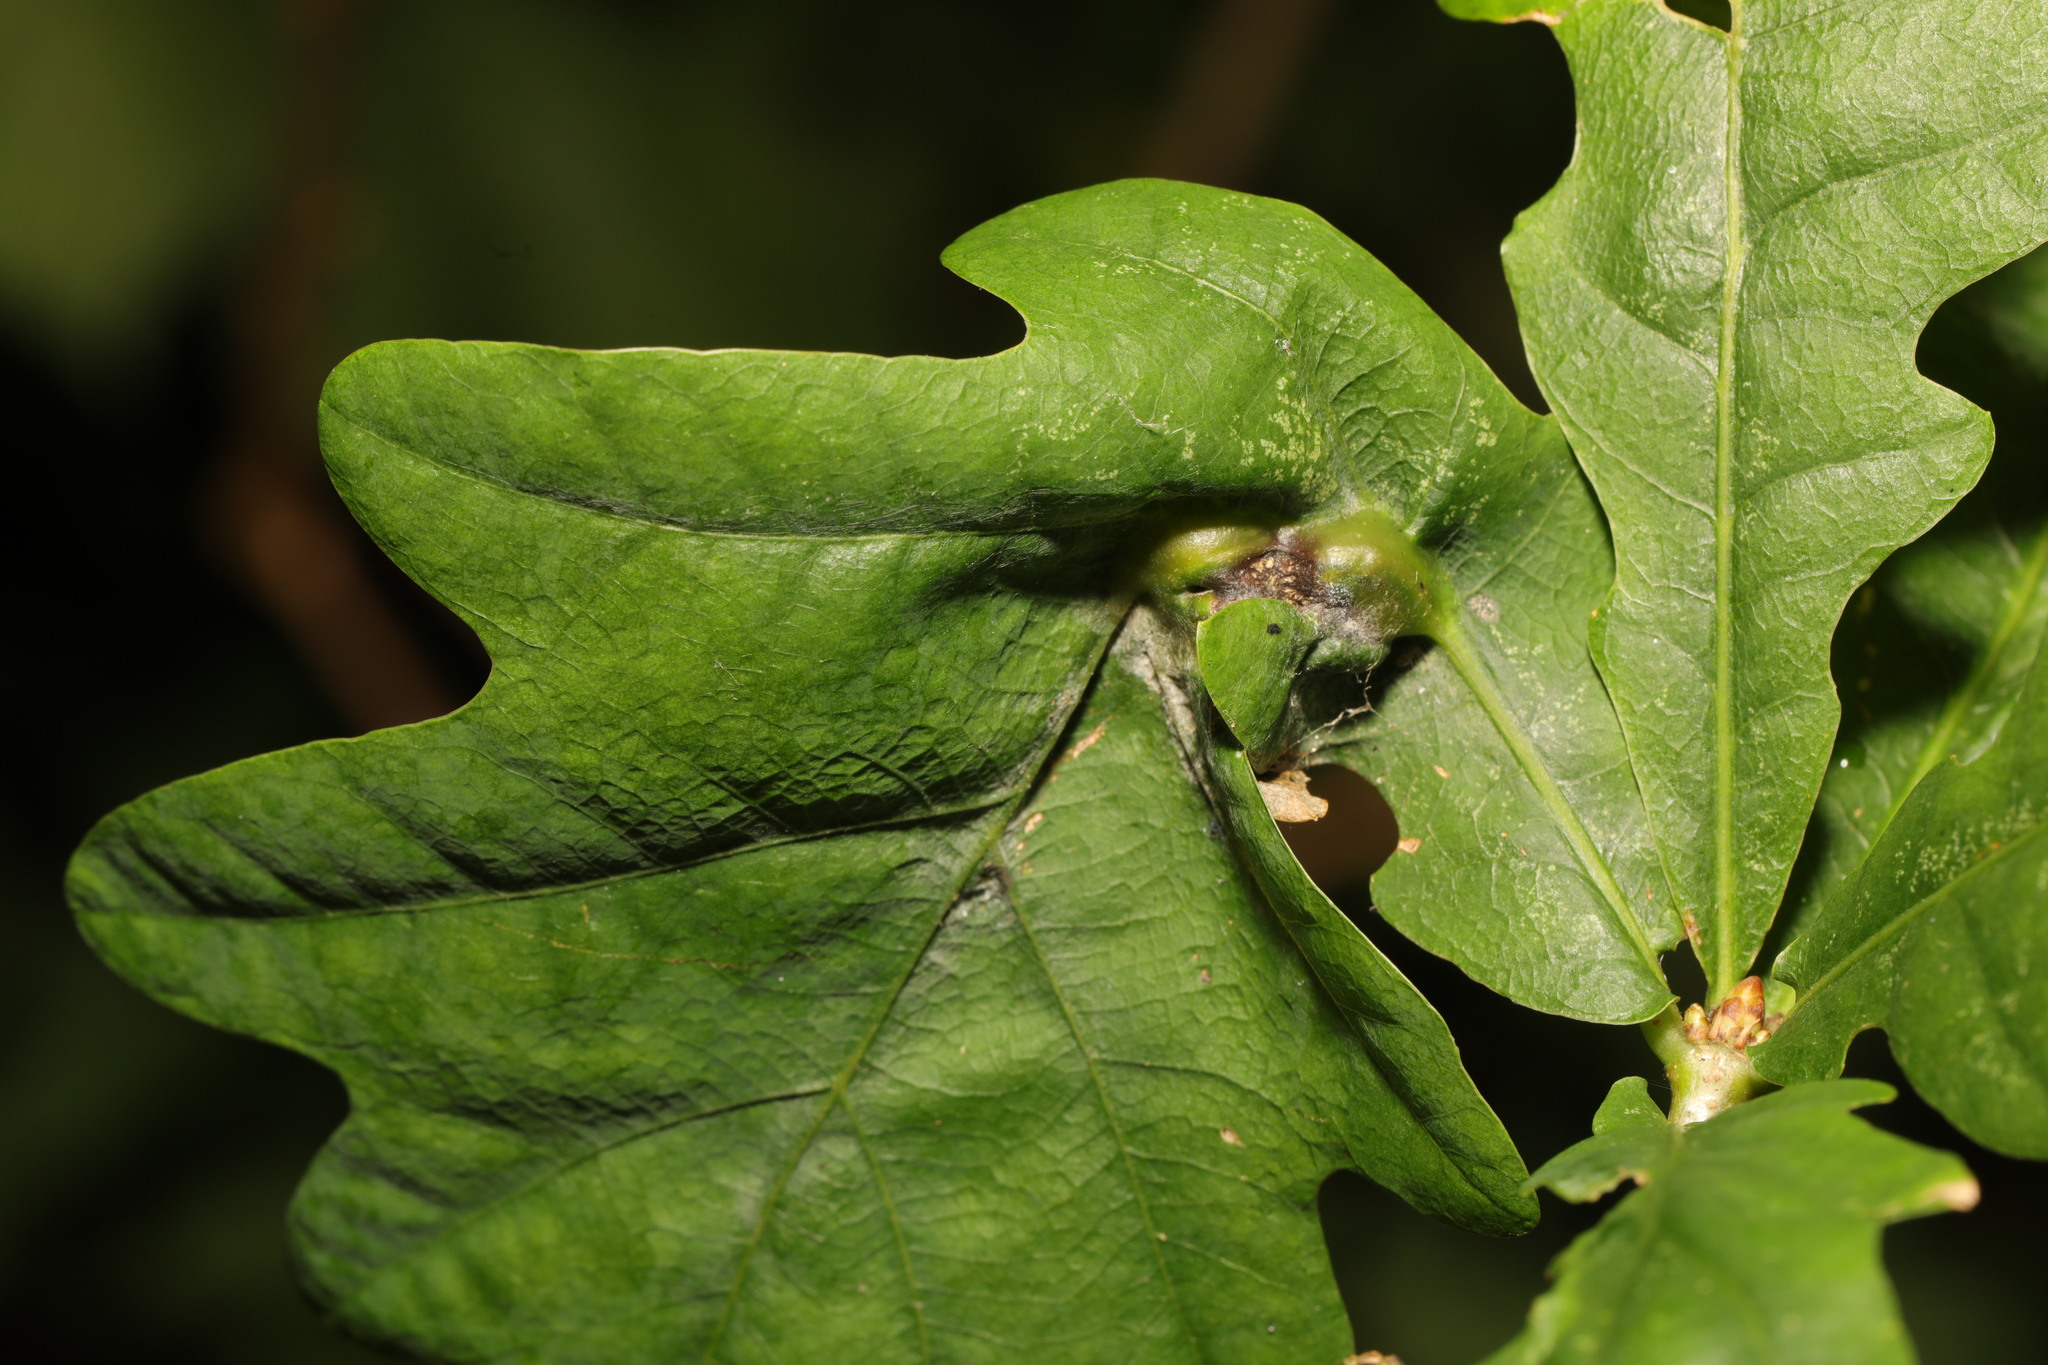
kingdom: Animalia
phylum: Arthropoda
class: Insecta
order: Hymenoptera
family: Cynipidae
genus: Andricus
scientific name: Andricus curvator
